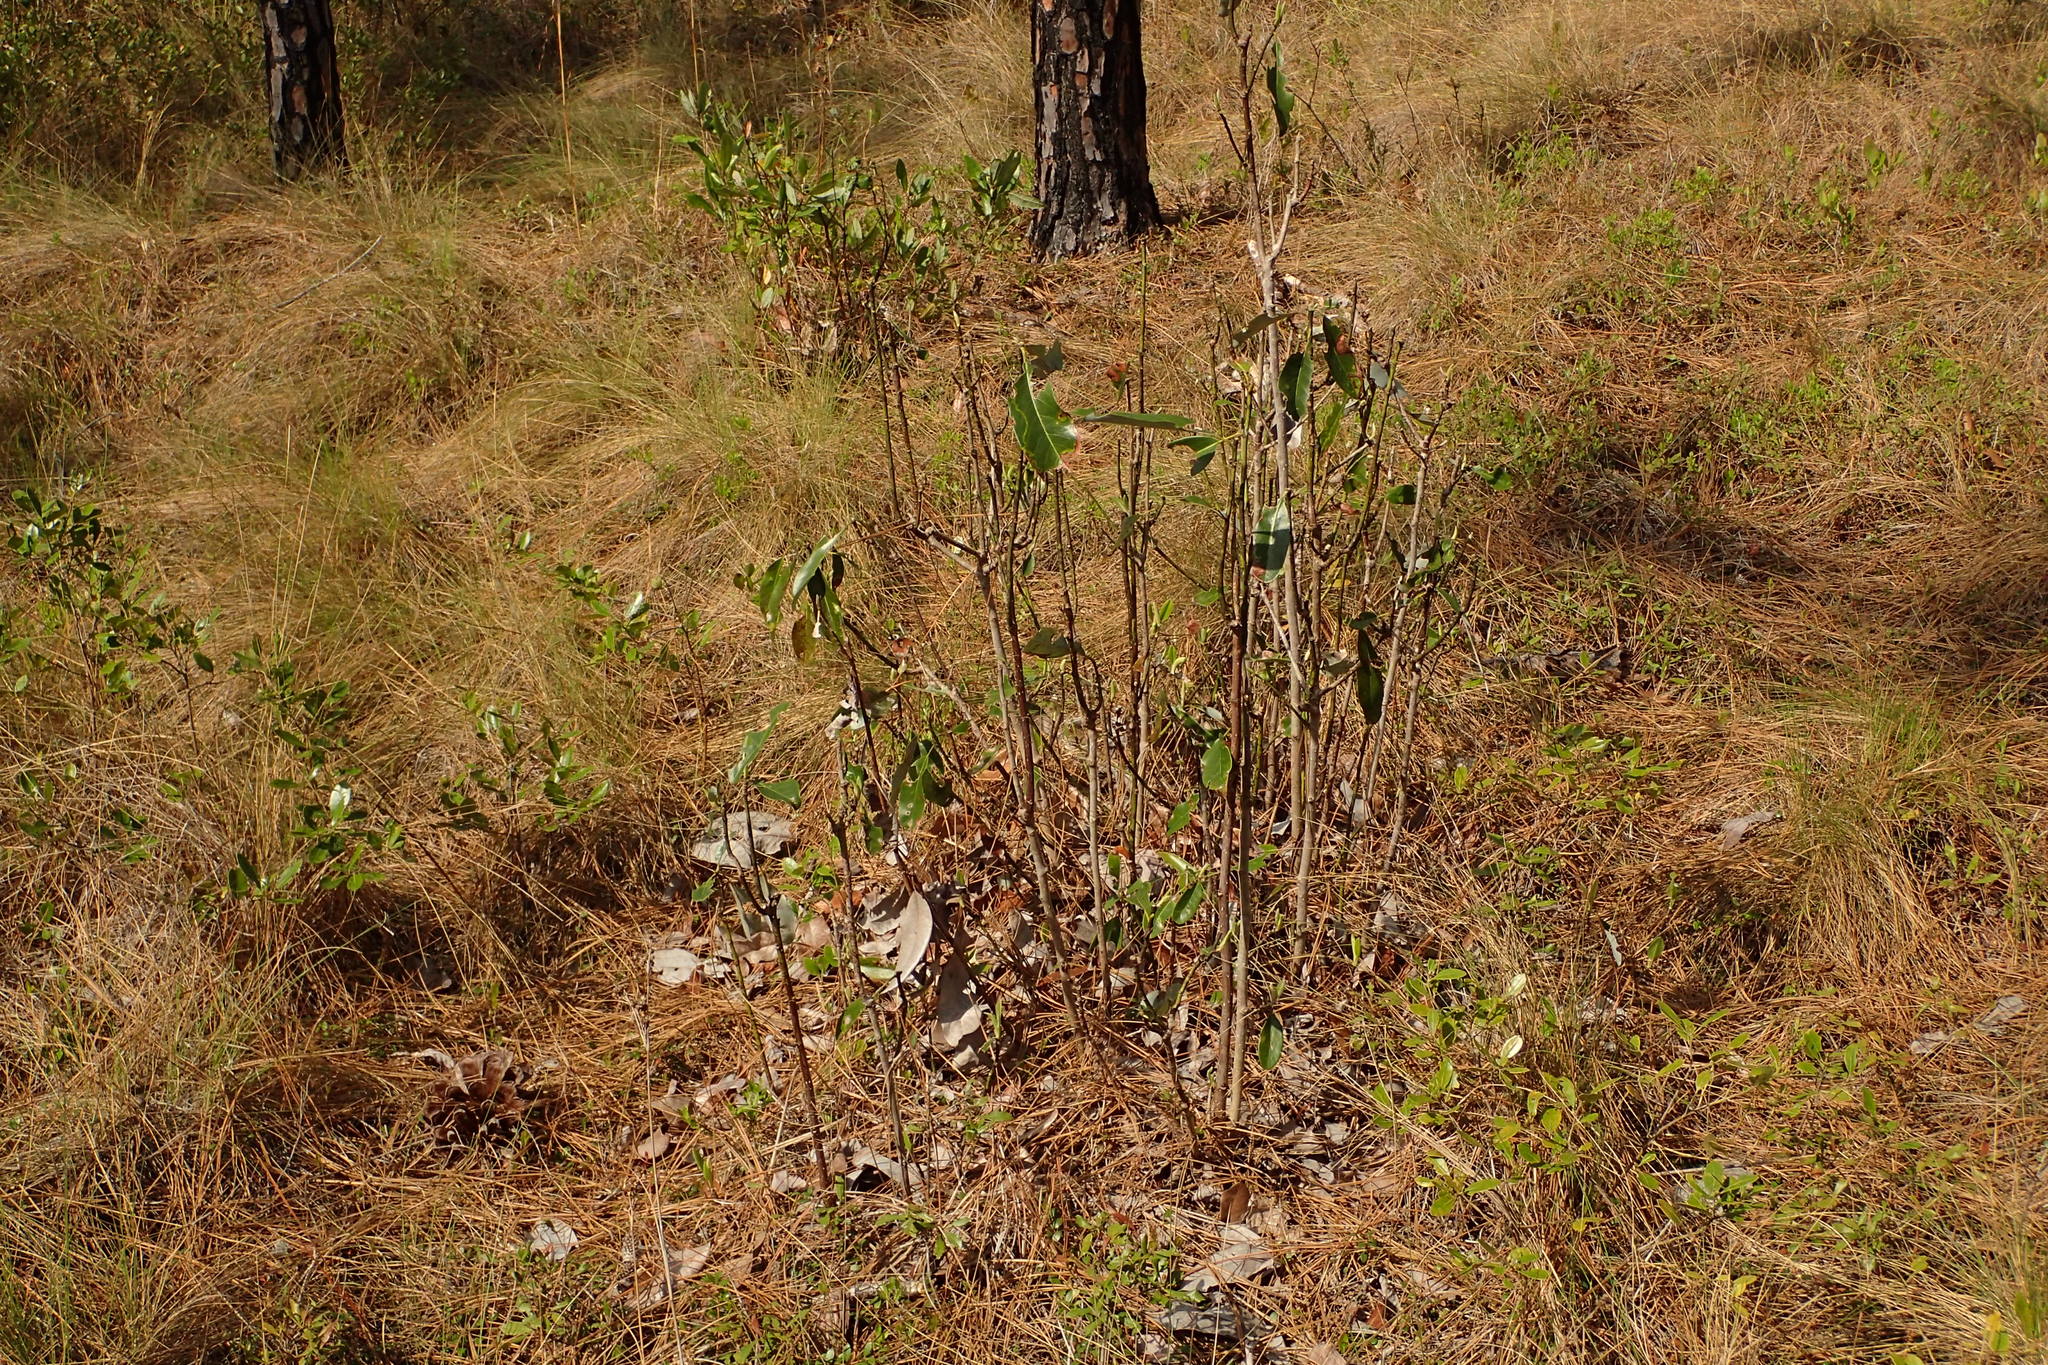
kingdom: Plantae
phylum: Tracheophyta
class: Magnoliopsida
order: Magnoliales
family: Magnoliaceae
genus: Magnolia
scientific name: Magnolia virginiana
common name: Swamp bay
